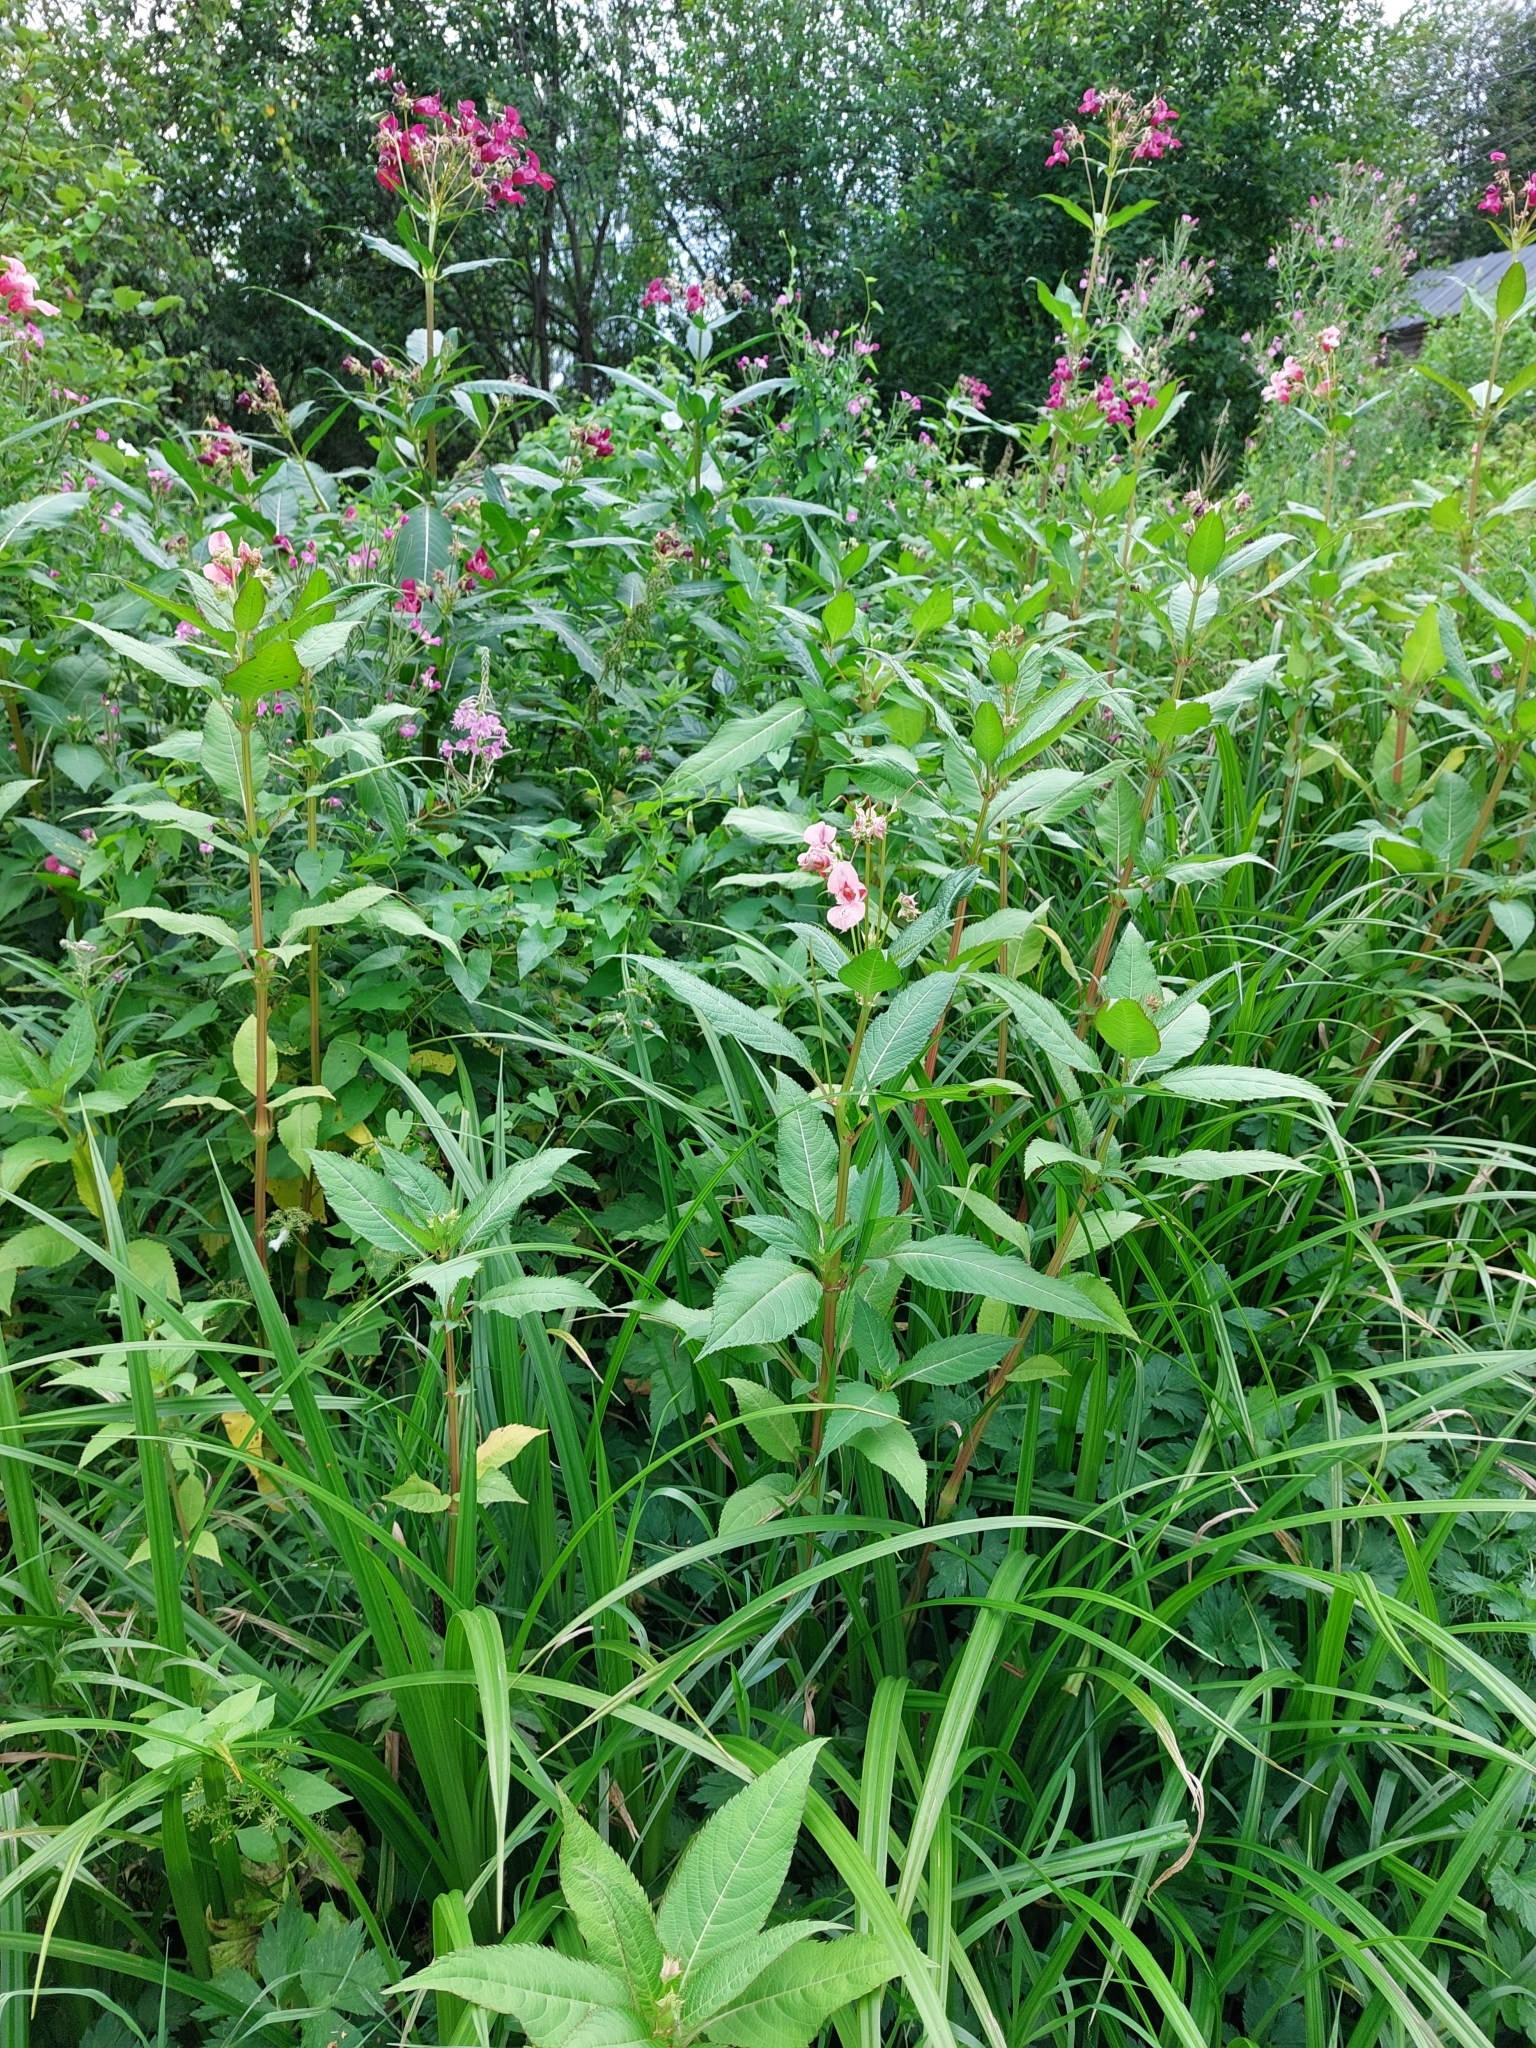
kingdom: Plantae
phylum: Tracheophyta
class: Magnoliopsida
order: Ericales
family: Balsaminaceae
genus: Impatiens
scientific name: Impatiens glandulifera
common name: Himalayan balsam
